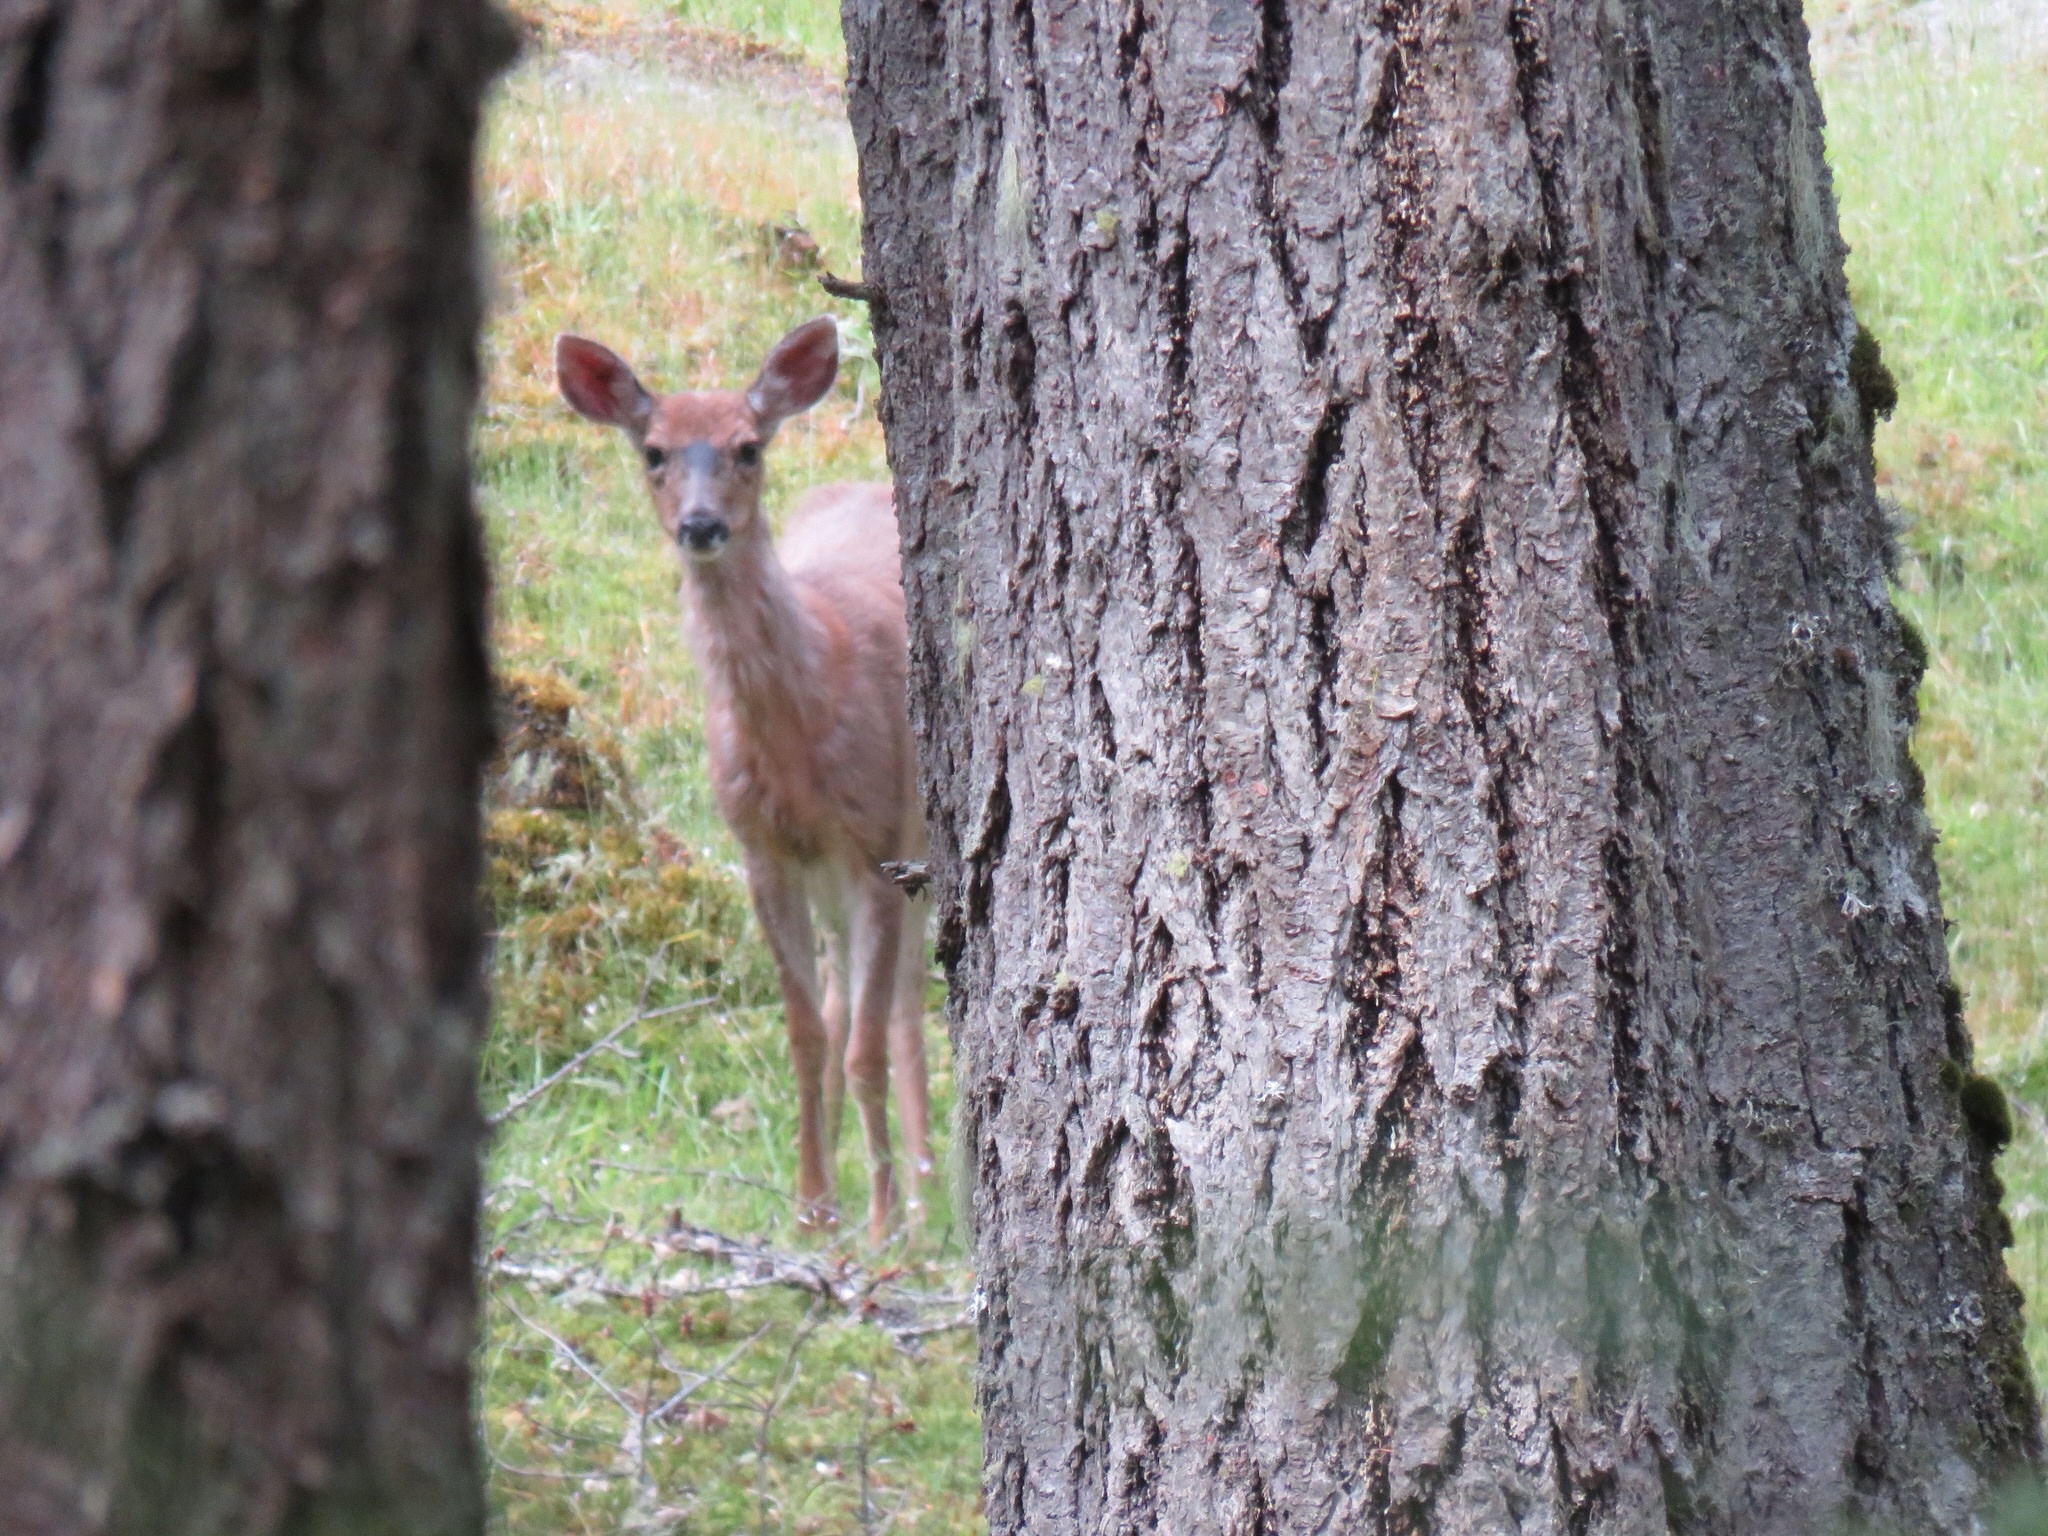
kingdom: Animalia
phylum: Chordata
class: Mammalia
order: Artiodactyla
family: Cervidae
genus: Odocoileus
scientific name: Odocoileus hemionus
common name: Mule deer
